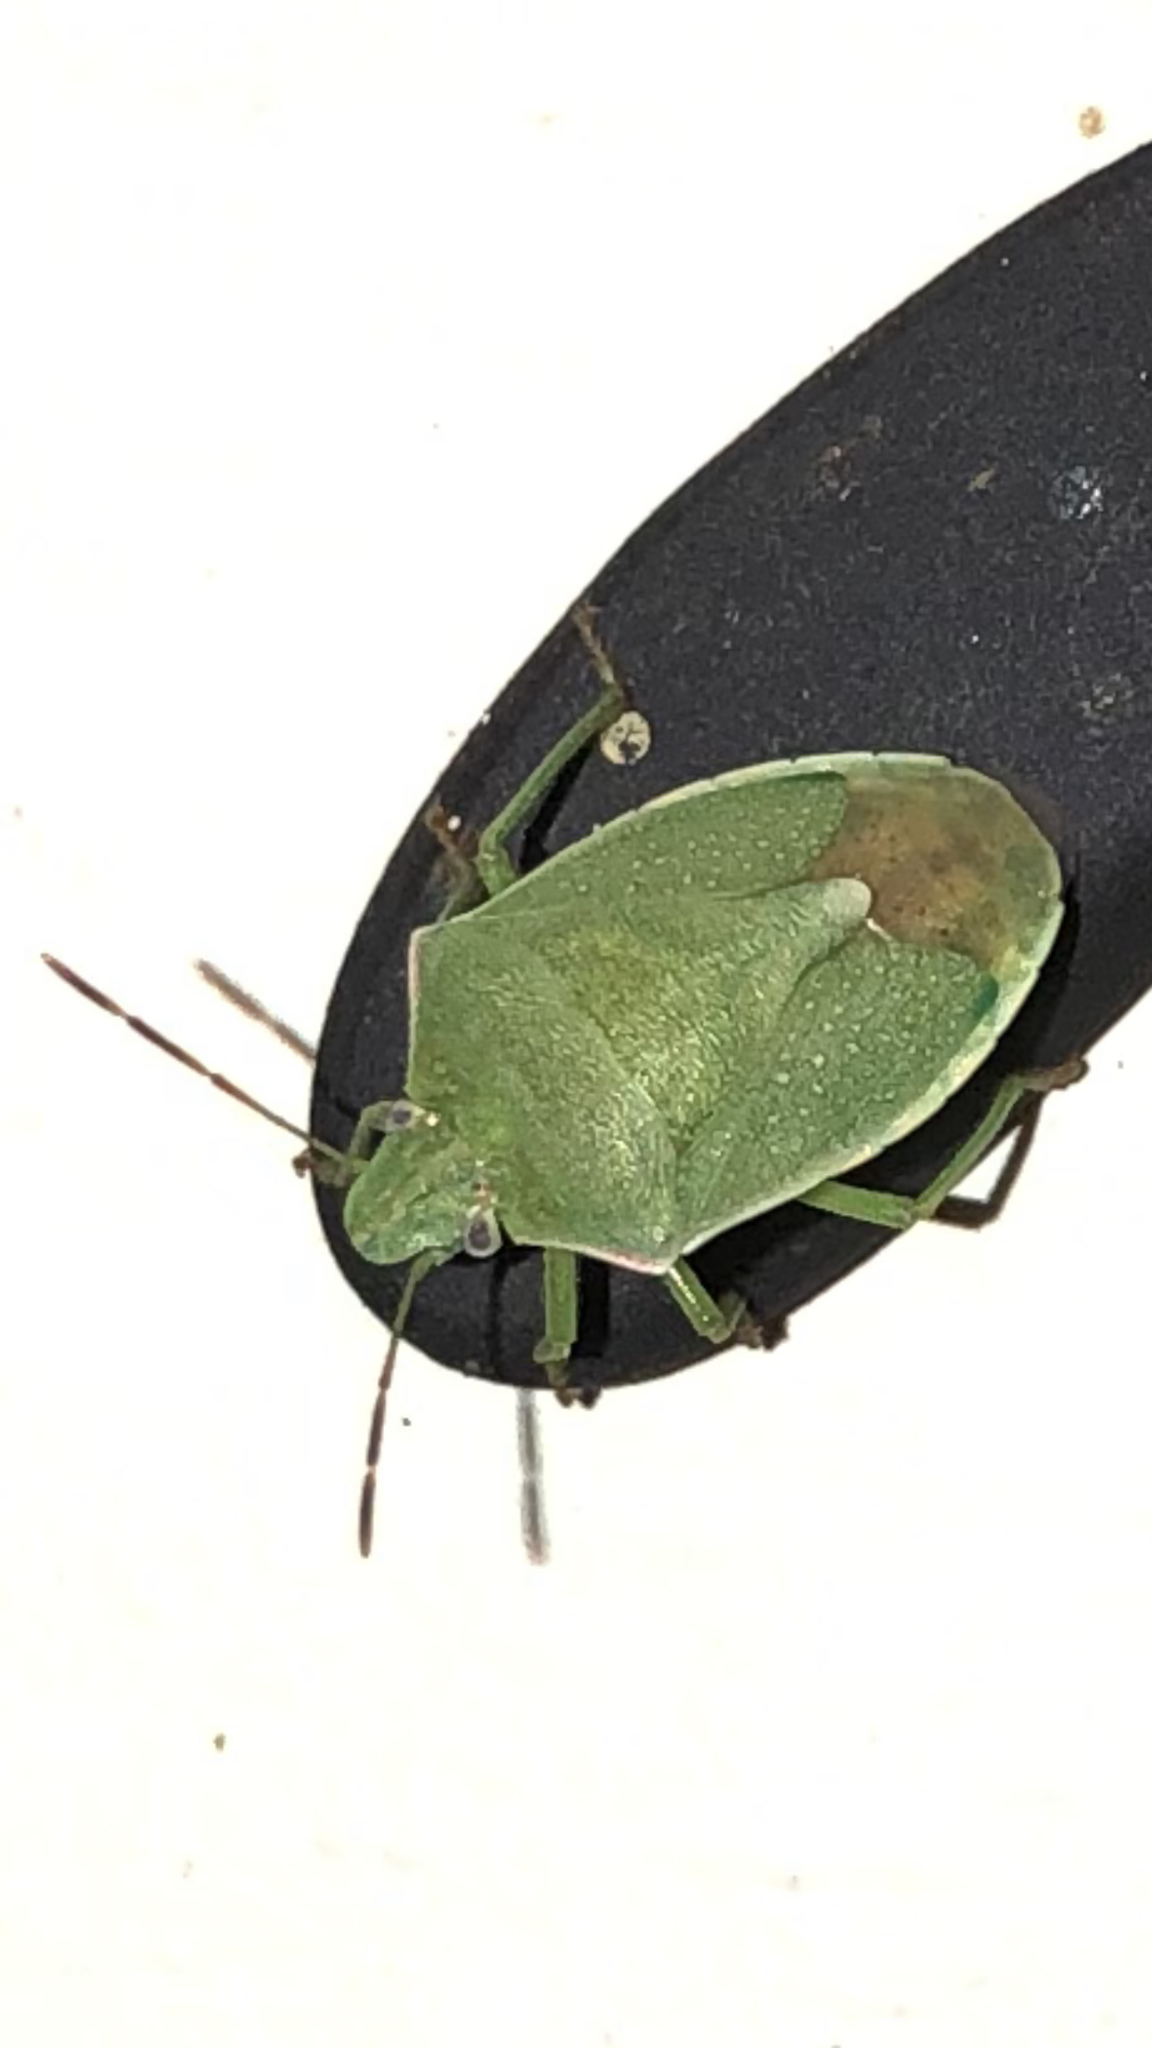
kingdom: Animalia
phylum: Arthropoda
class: Insecta
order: Hemiptera
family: Pentatomidae
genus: Thyanta
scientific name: Thyanta accerra
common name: Stink bug
